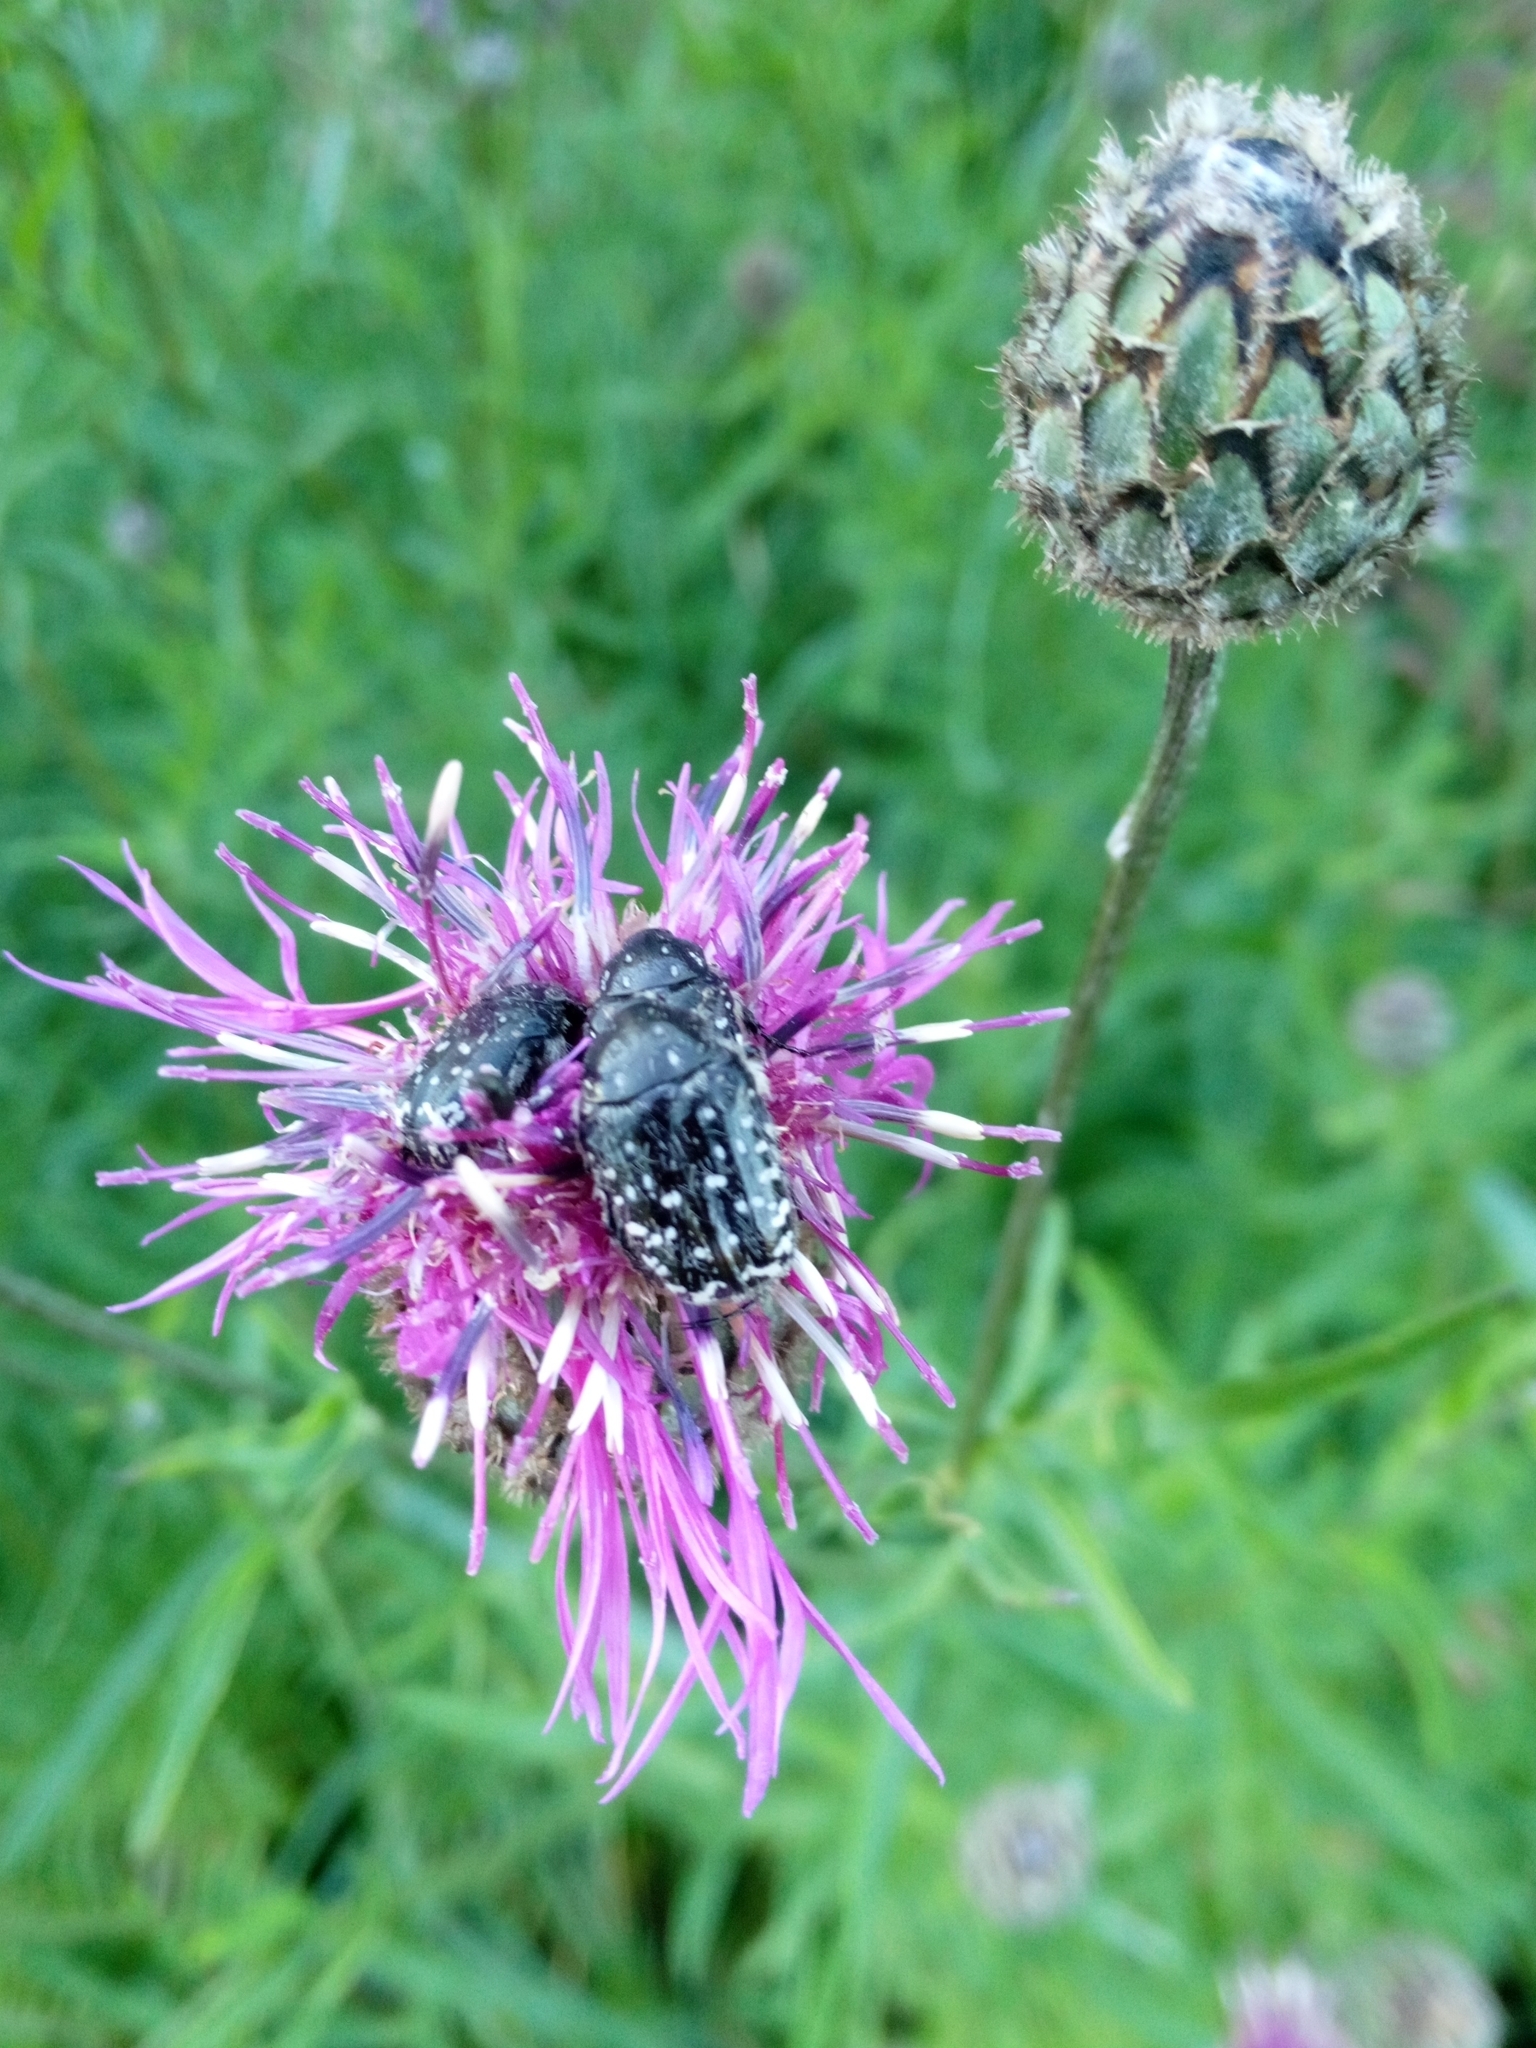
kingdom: Animalia
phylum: Arthropoda
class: Insecta
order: Coleoptera
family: Scarabaeidae
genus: Oxythyrea
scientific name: Oxythyrea funesta
